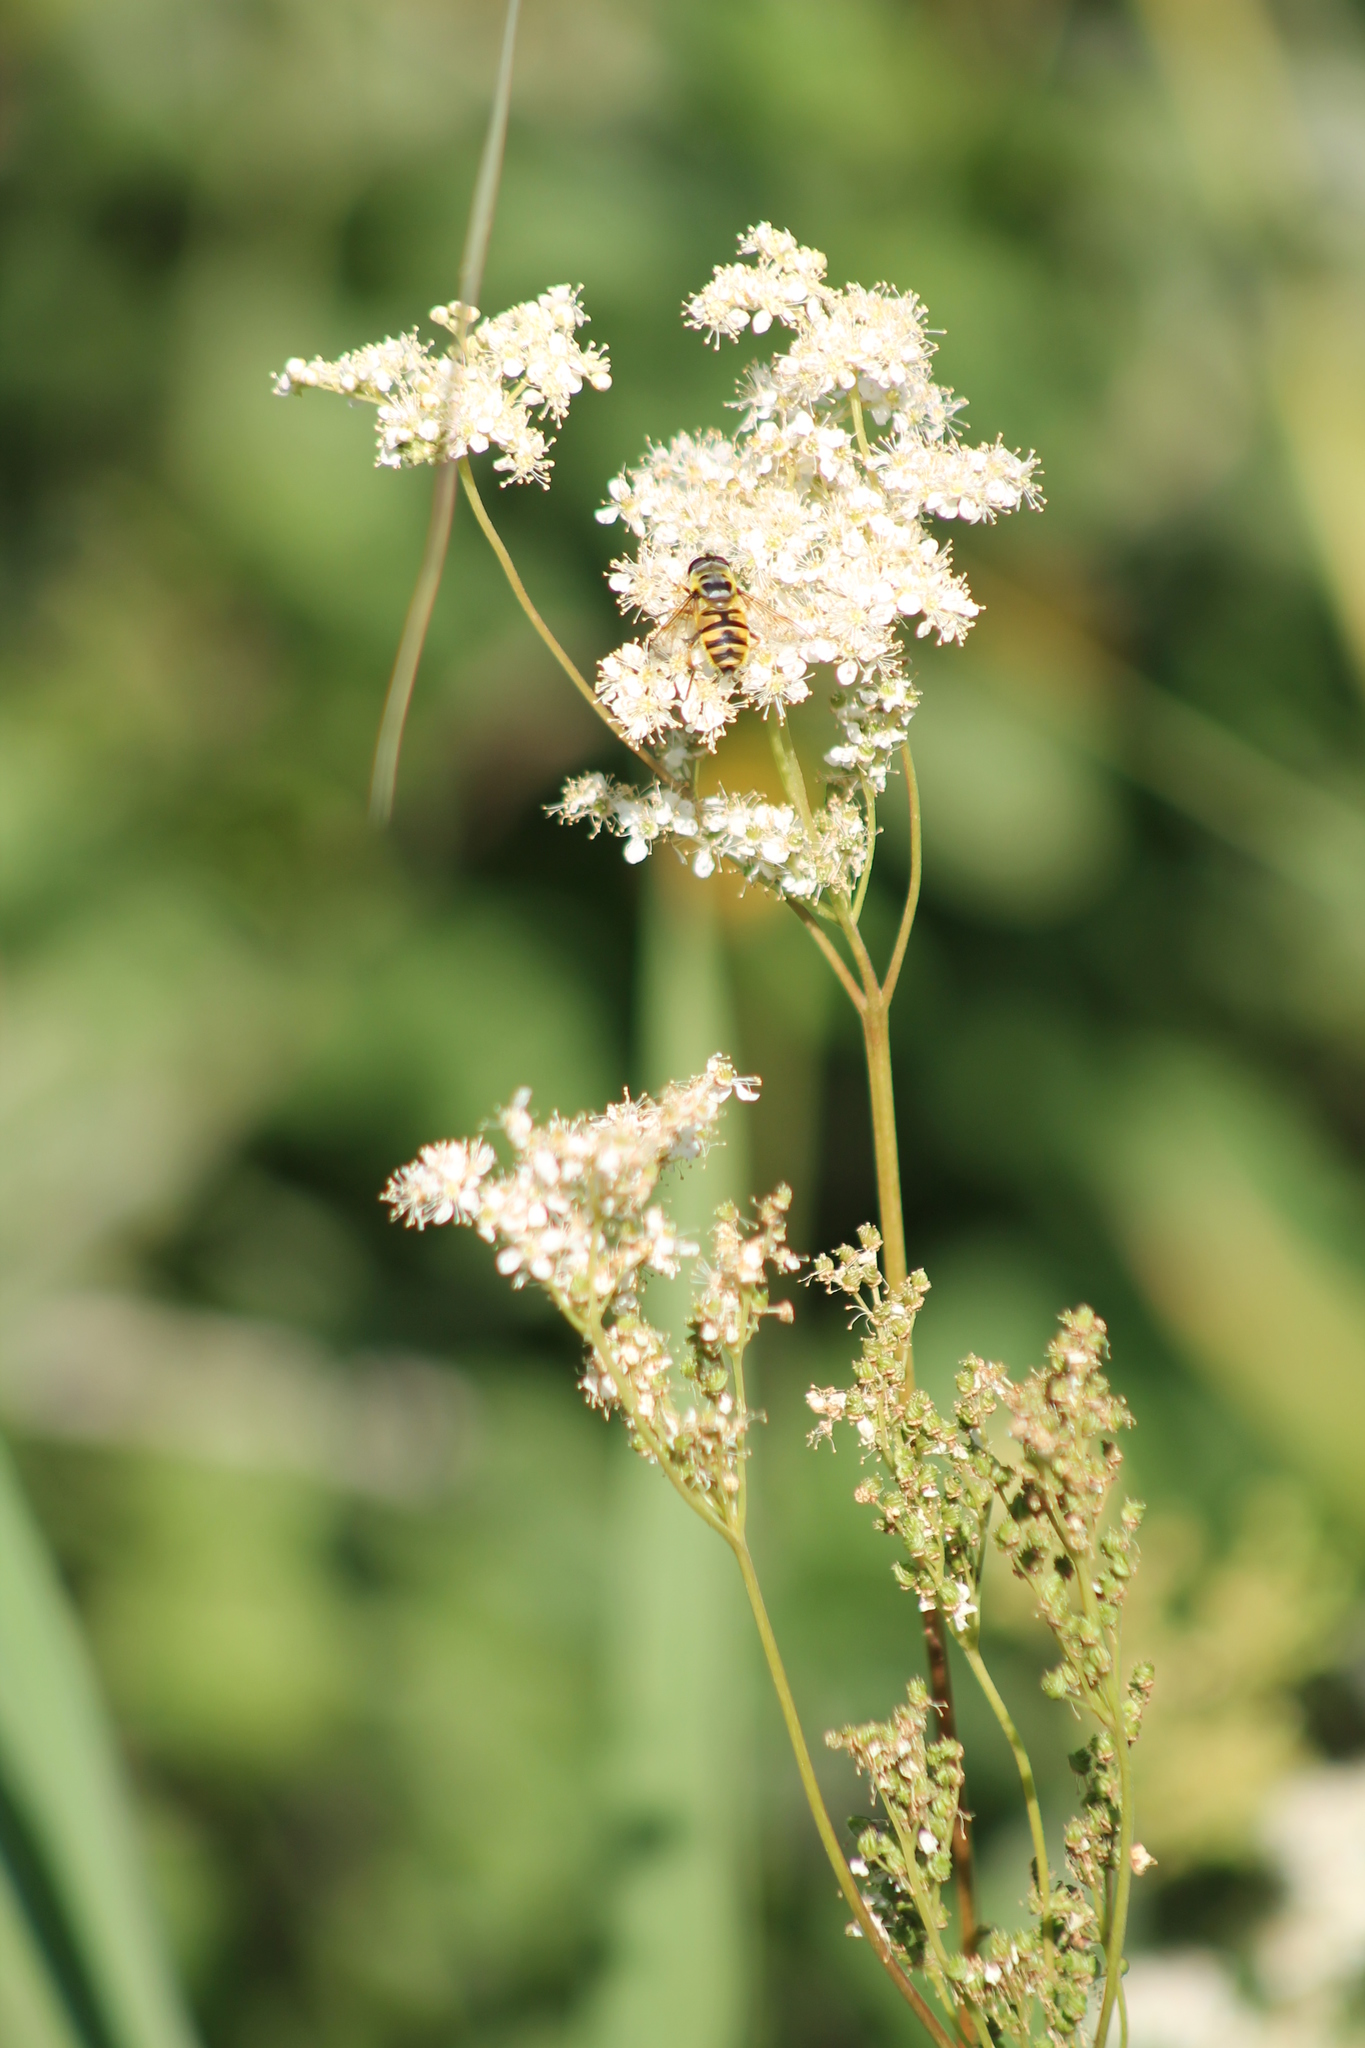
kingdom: Plantae
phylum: Tracheophyta
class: Magnoliopsida
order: Rosales
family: Rosaceae
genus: Filipendula
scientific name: Filipendula ulmaria
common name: Meadowsweet
